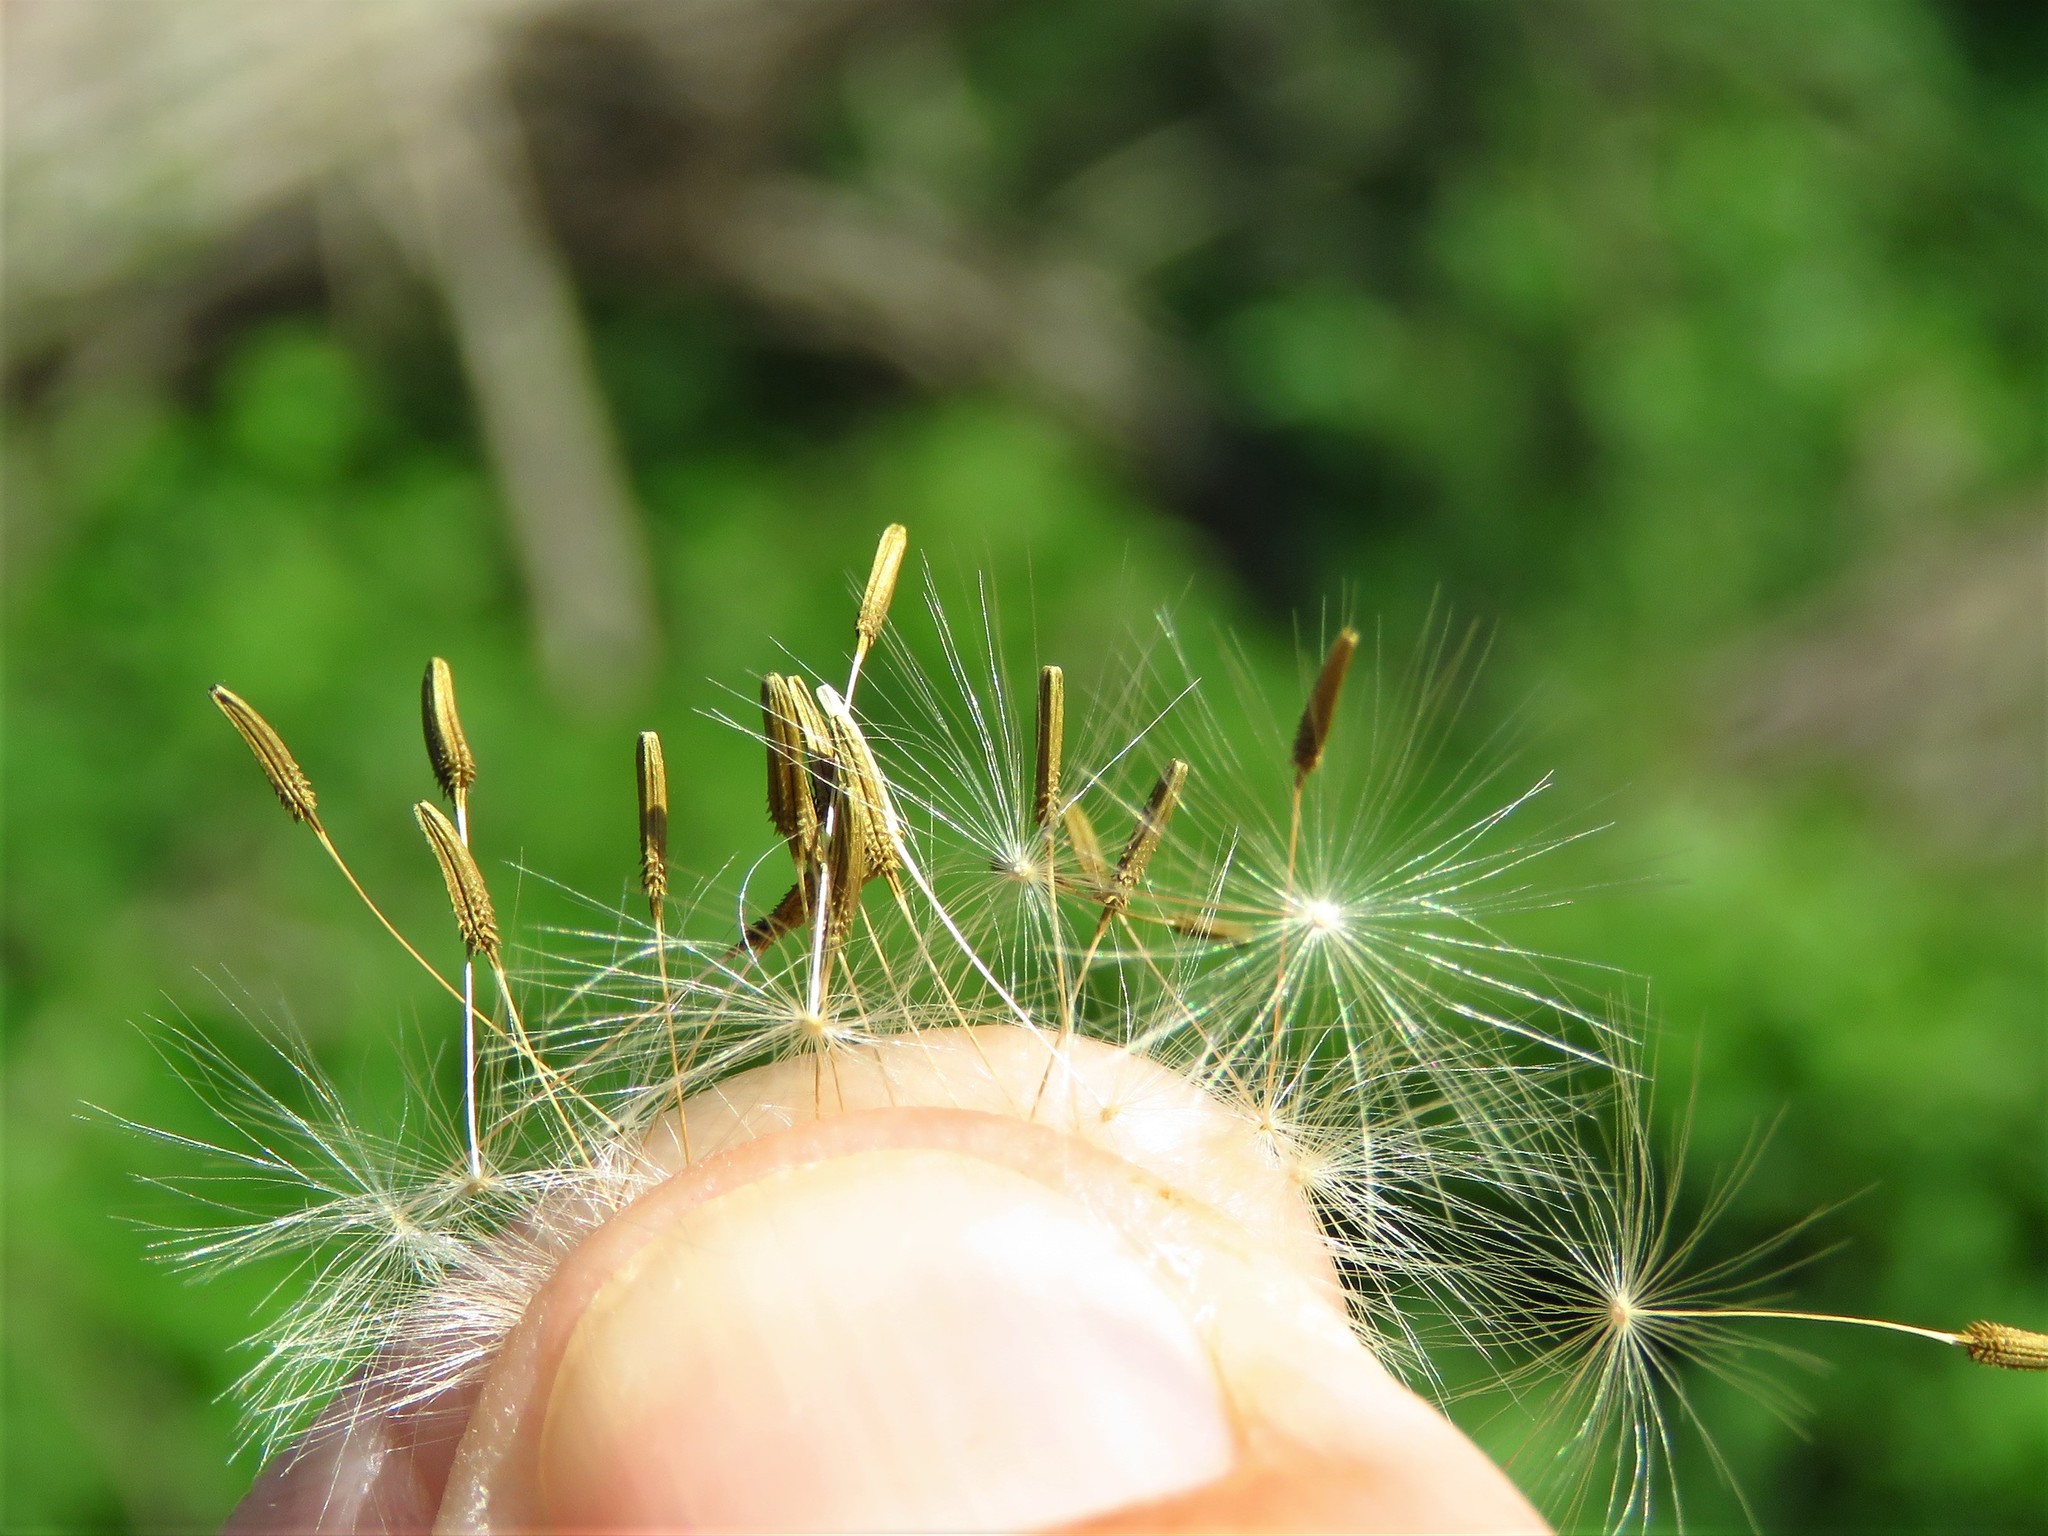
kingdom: Plantae
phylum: Tracheophyta
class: Magnoliopsida
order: Asterales
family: Asteraceae
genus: Taraxacum
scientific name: Taraxacum officinale
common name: Common dandelion
